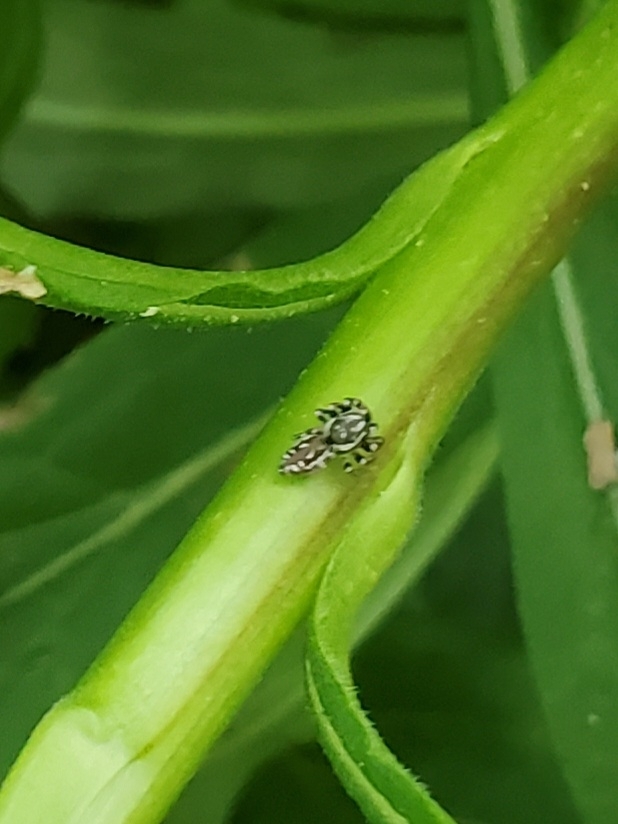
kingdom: Animalia
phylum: Arthropoda
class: Arachnida
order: Araneae
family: Salticidae
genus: Pelegrina
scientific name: Pelegrina galathea
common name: Jumping spiders
